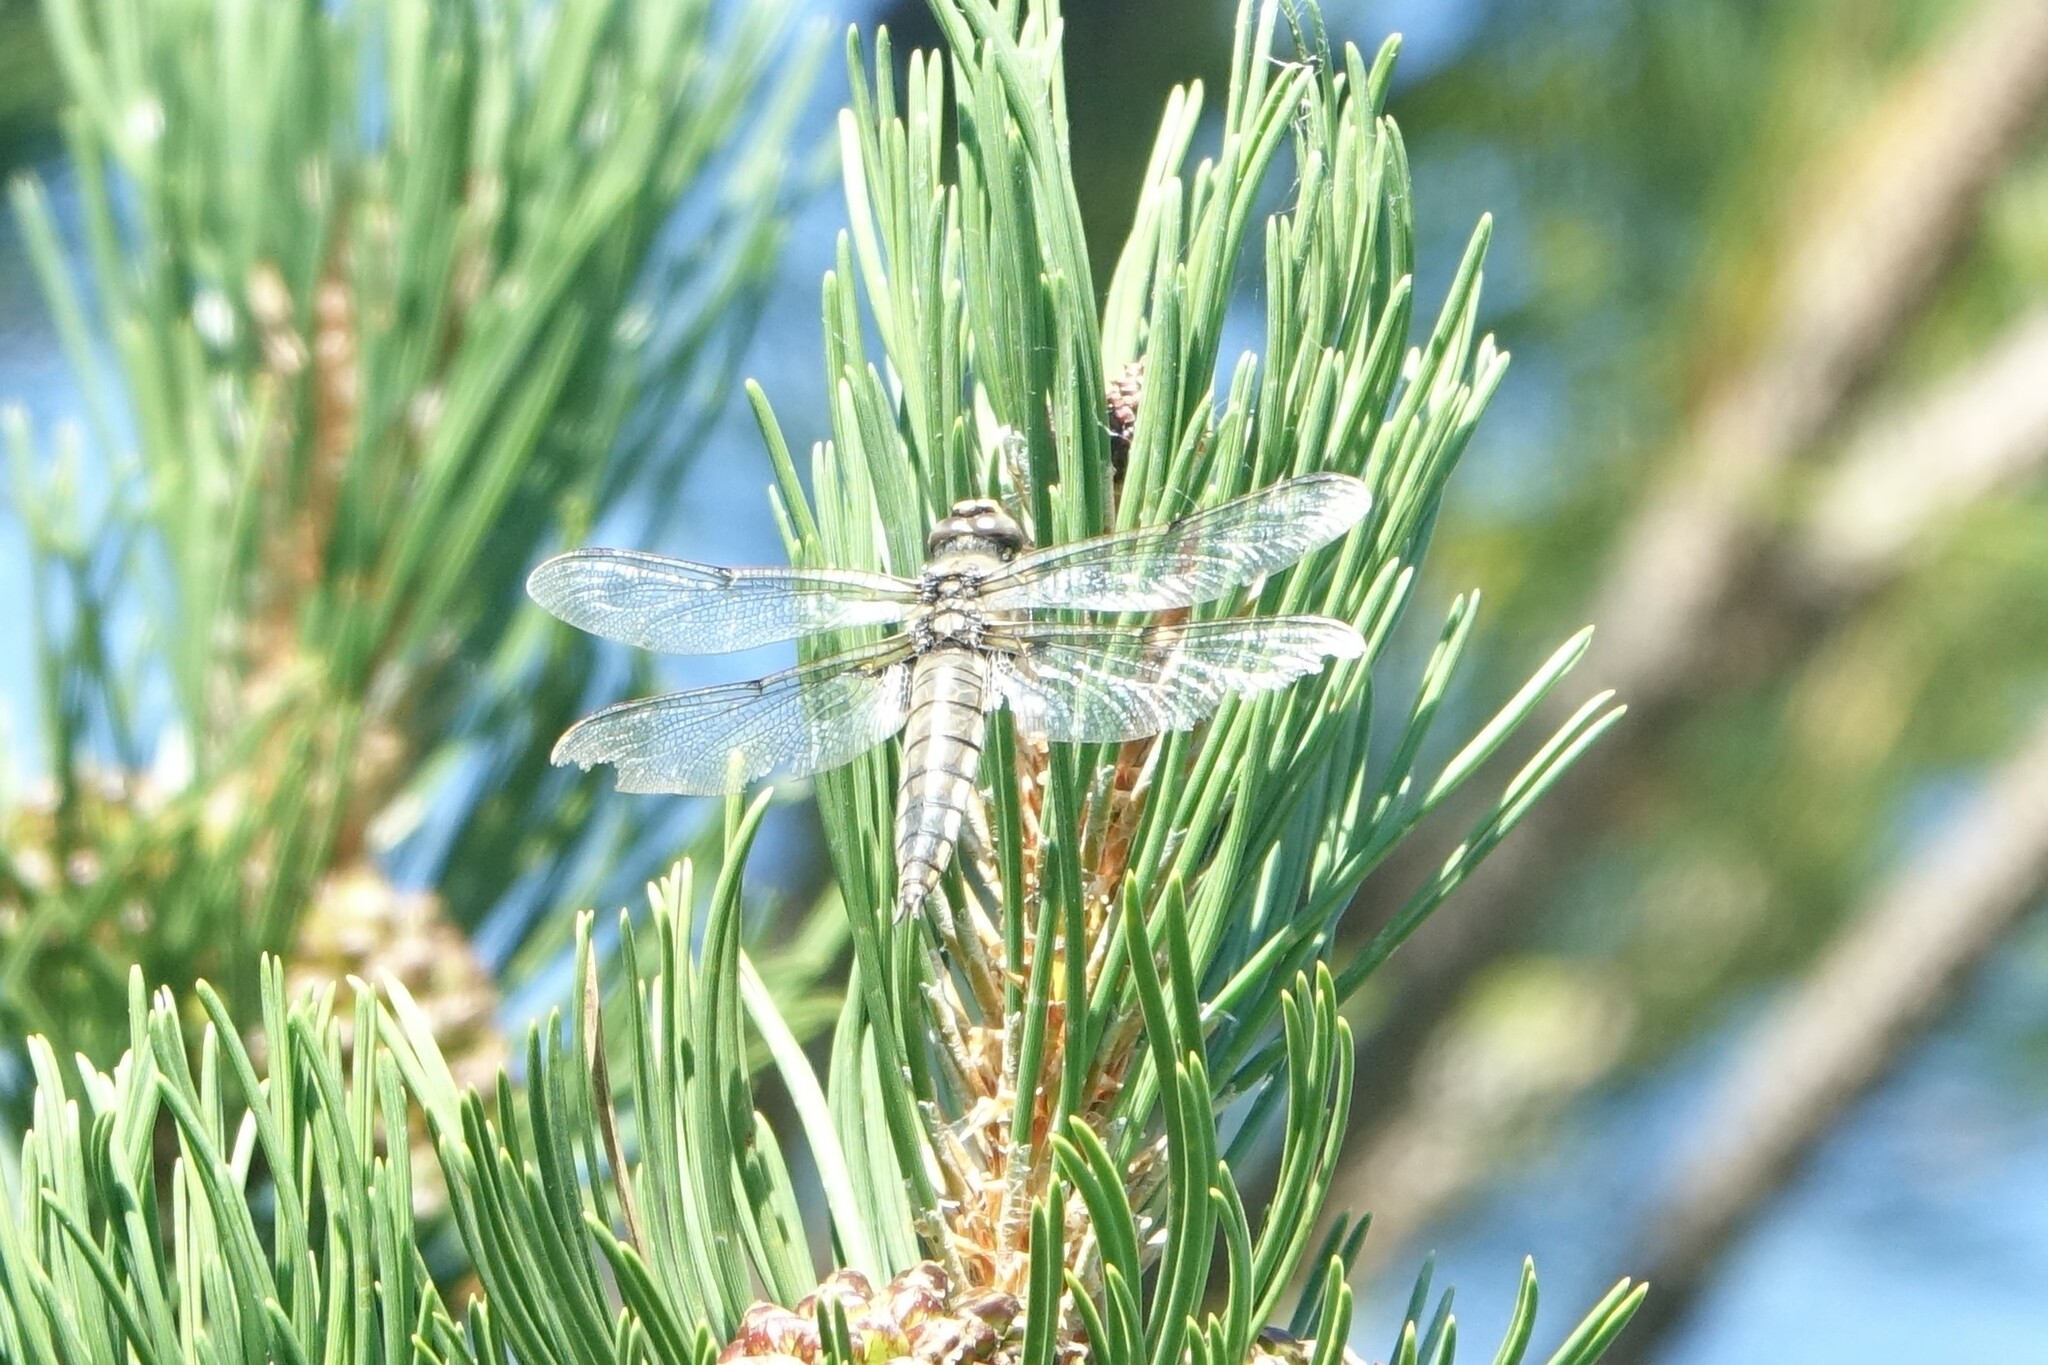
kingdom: Animalia
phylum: Arthropoda
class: Insecta
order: Odonata
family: Libellulidae
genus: Libellula
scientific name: Libellula quadrimaculata
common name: Four-spotted chaser
